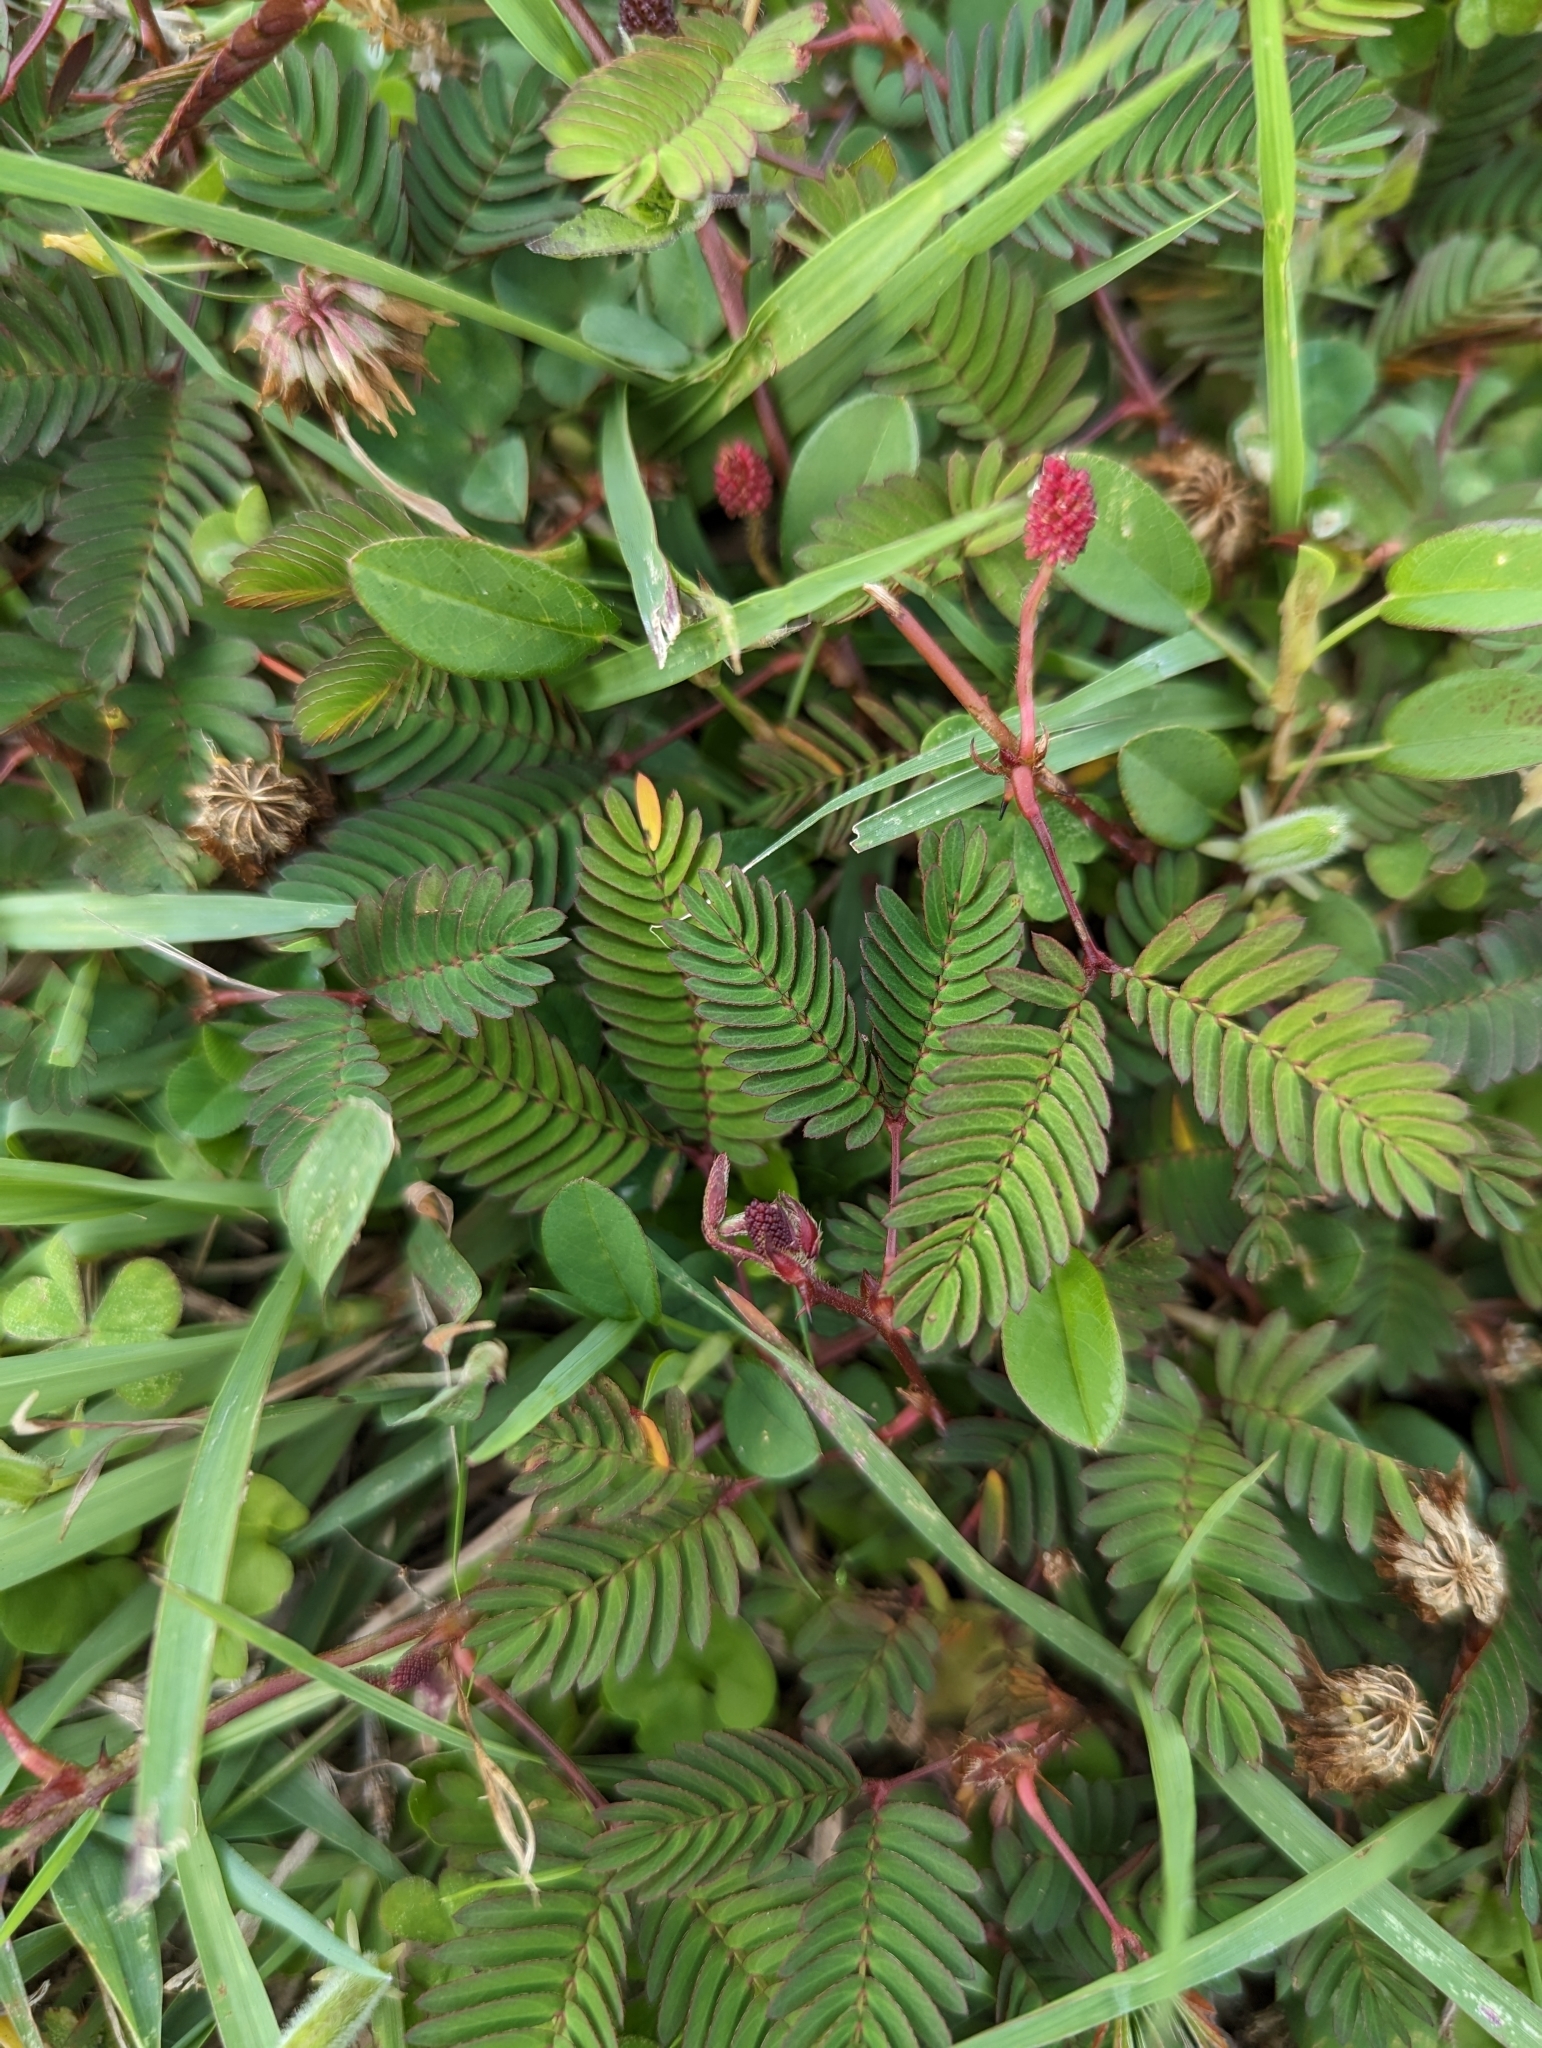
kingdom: Plantae
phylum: Tracheophyta
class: Magnoliopsida
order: Fabales
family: Fabaceae
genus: Mimosa
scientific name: Mimosa pudica
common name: Sensitive plant
